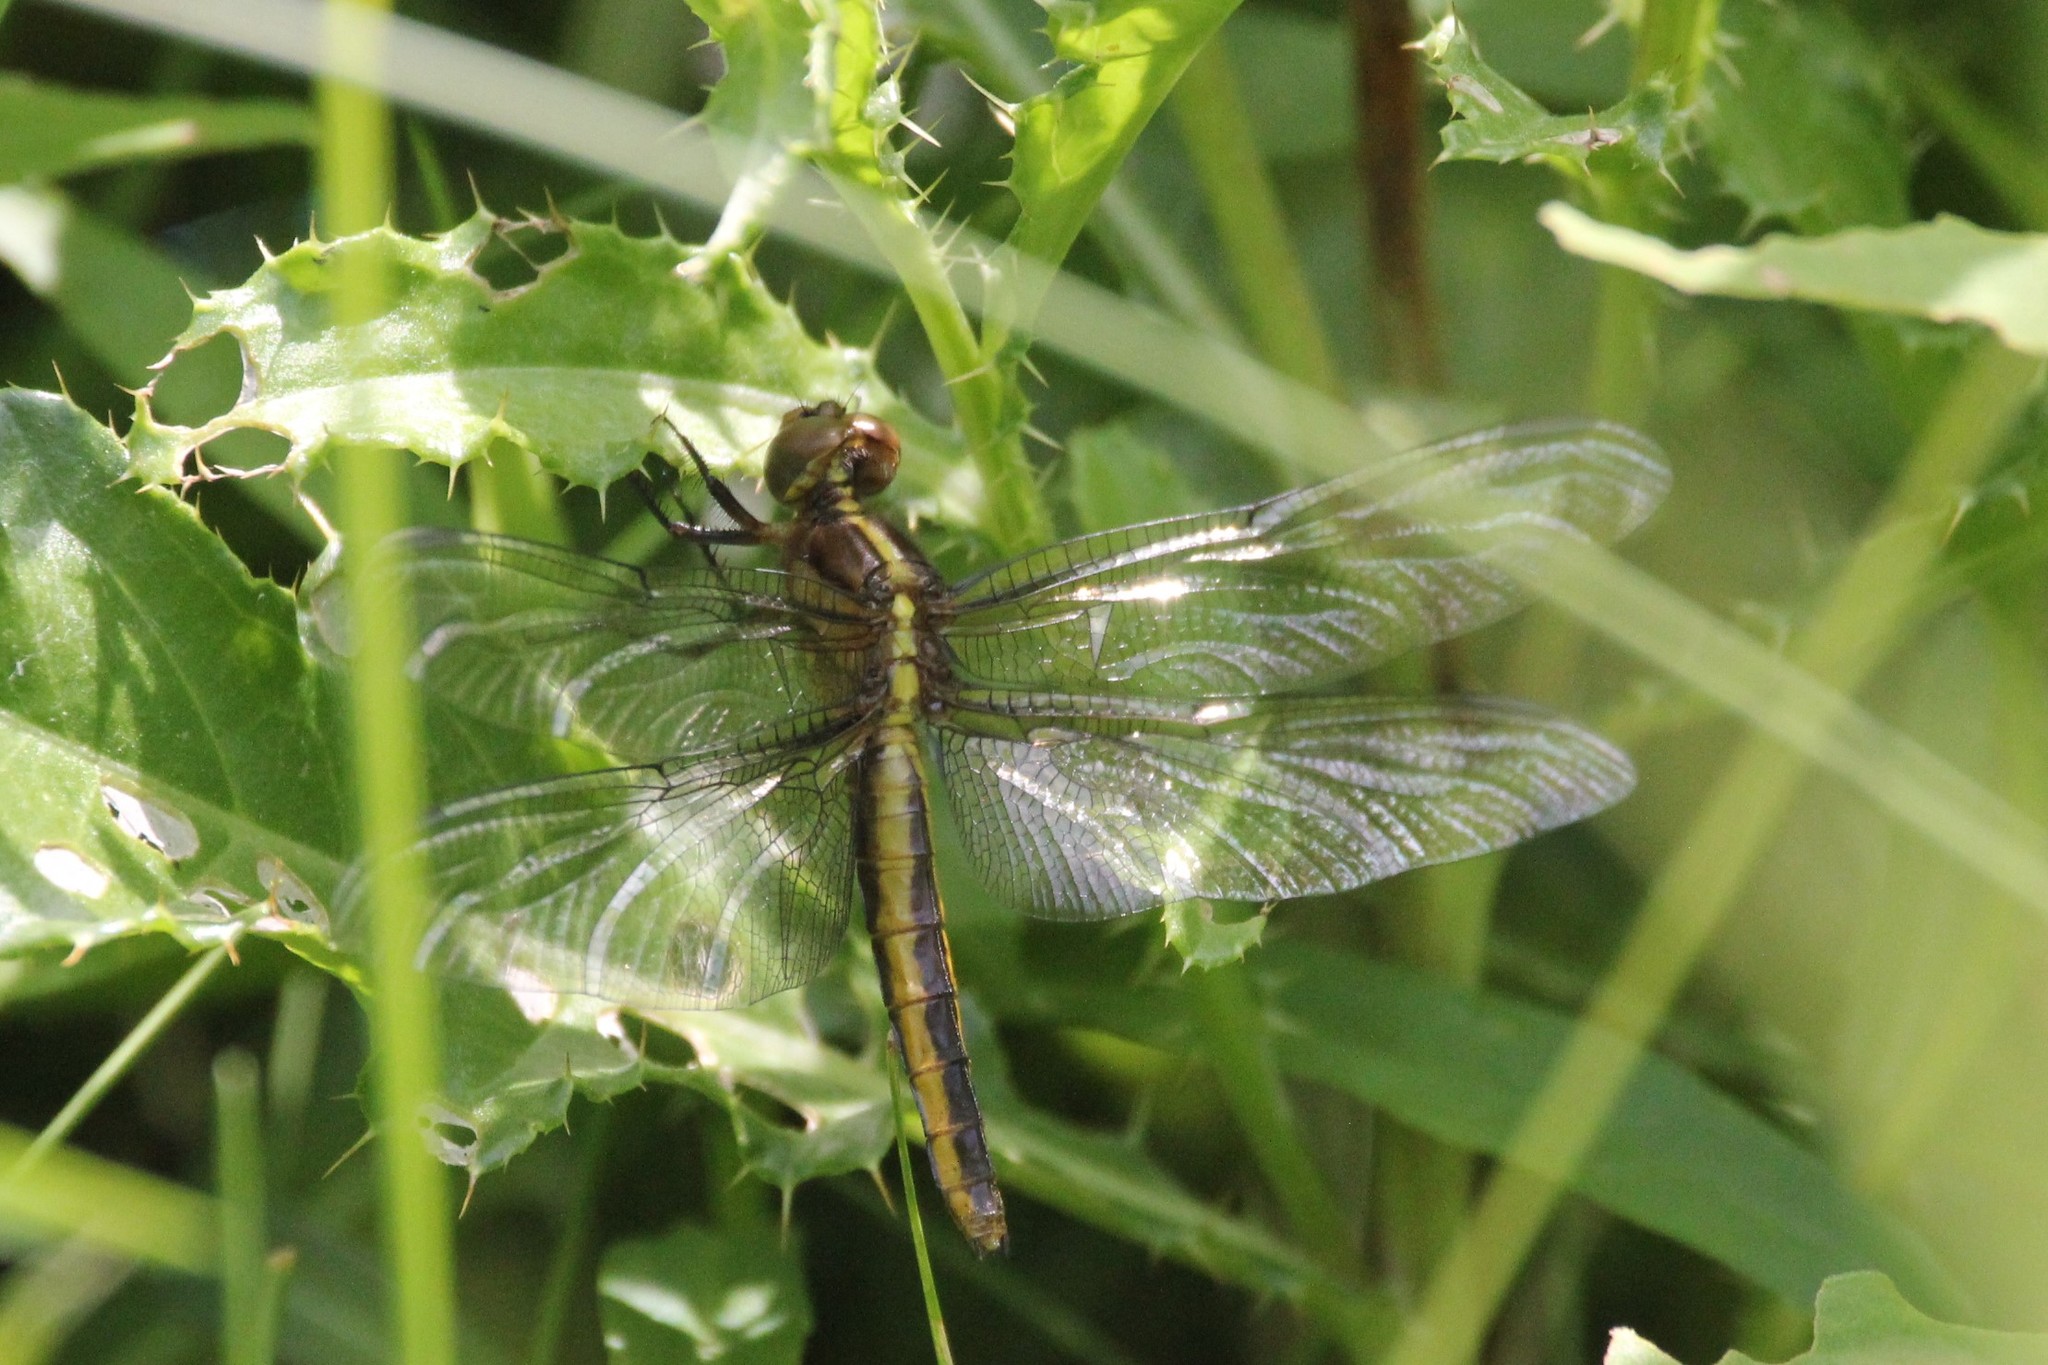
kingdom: Animalia
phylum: Arthropoda
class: Insecta
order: Odonata
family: Libellulidae
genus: Libellula
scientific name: Libellula luctuosa
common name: Widow skimmer
